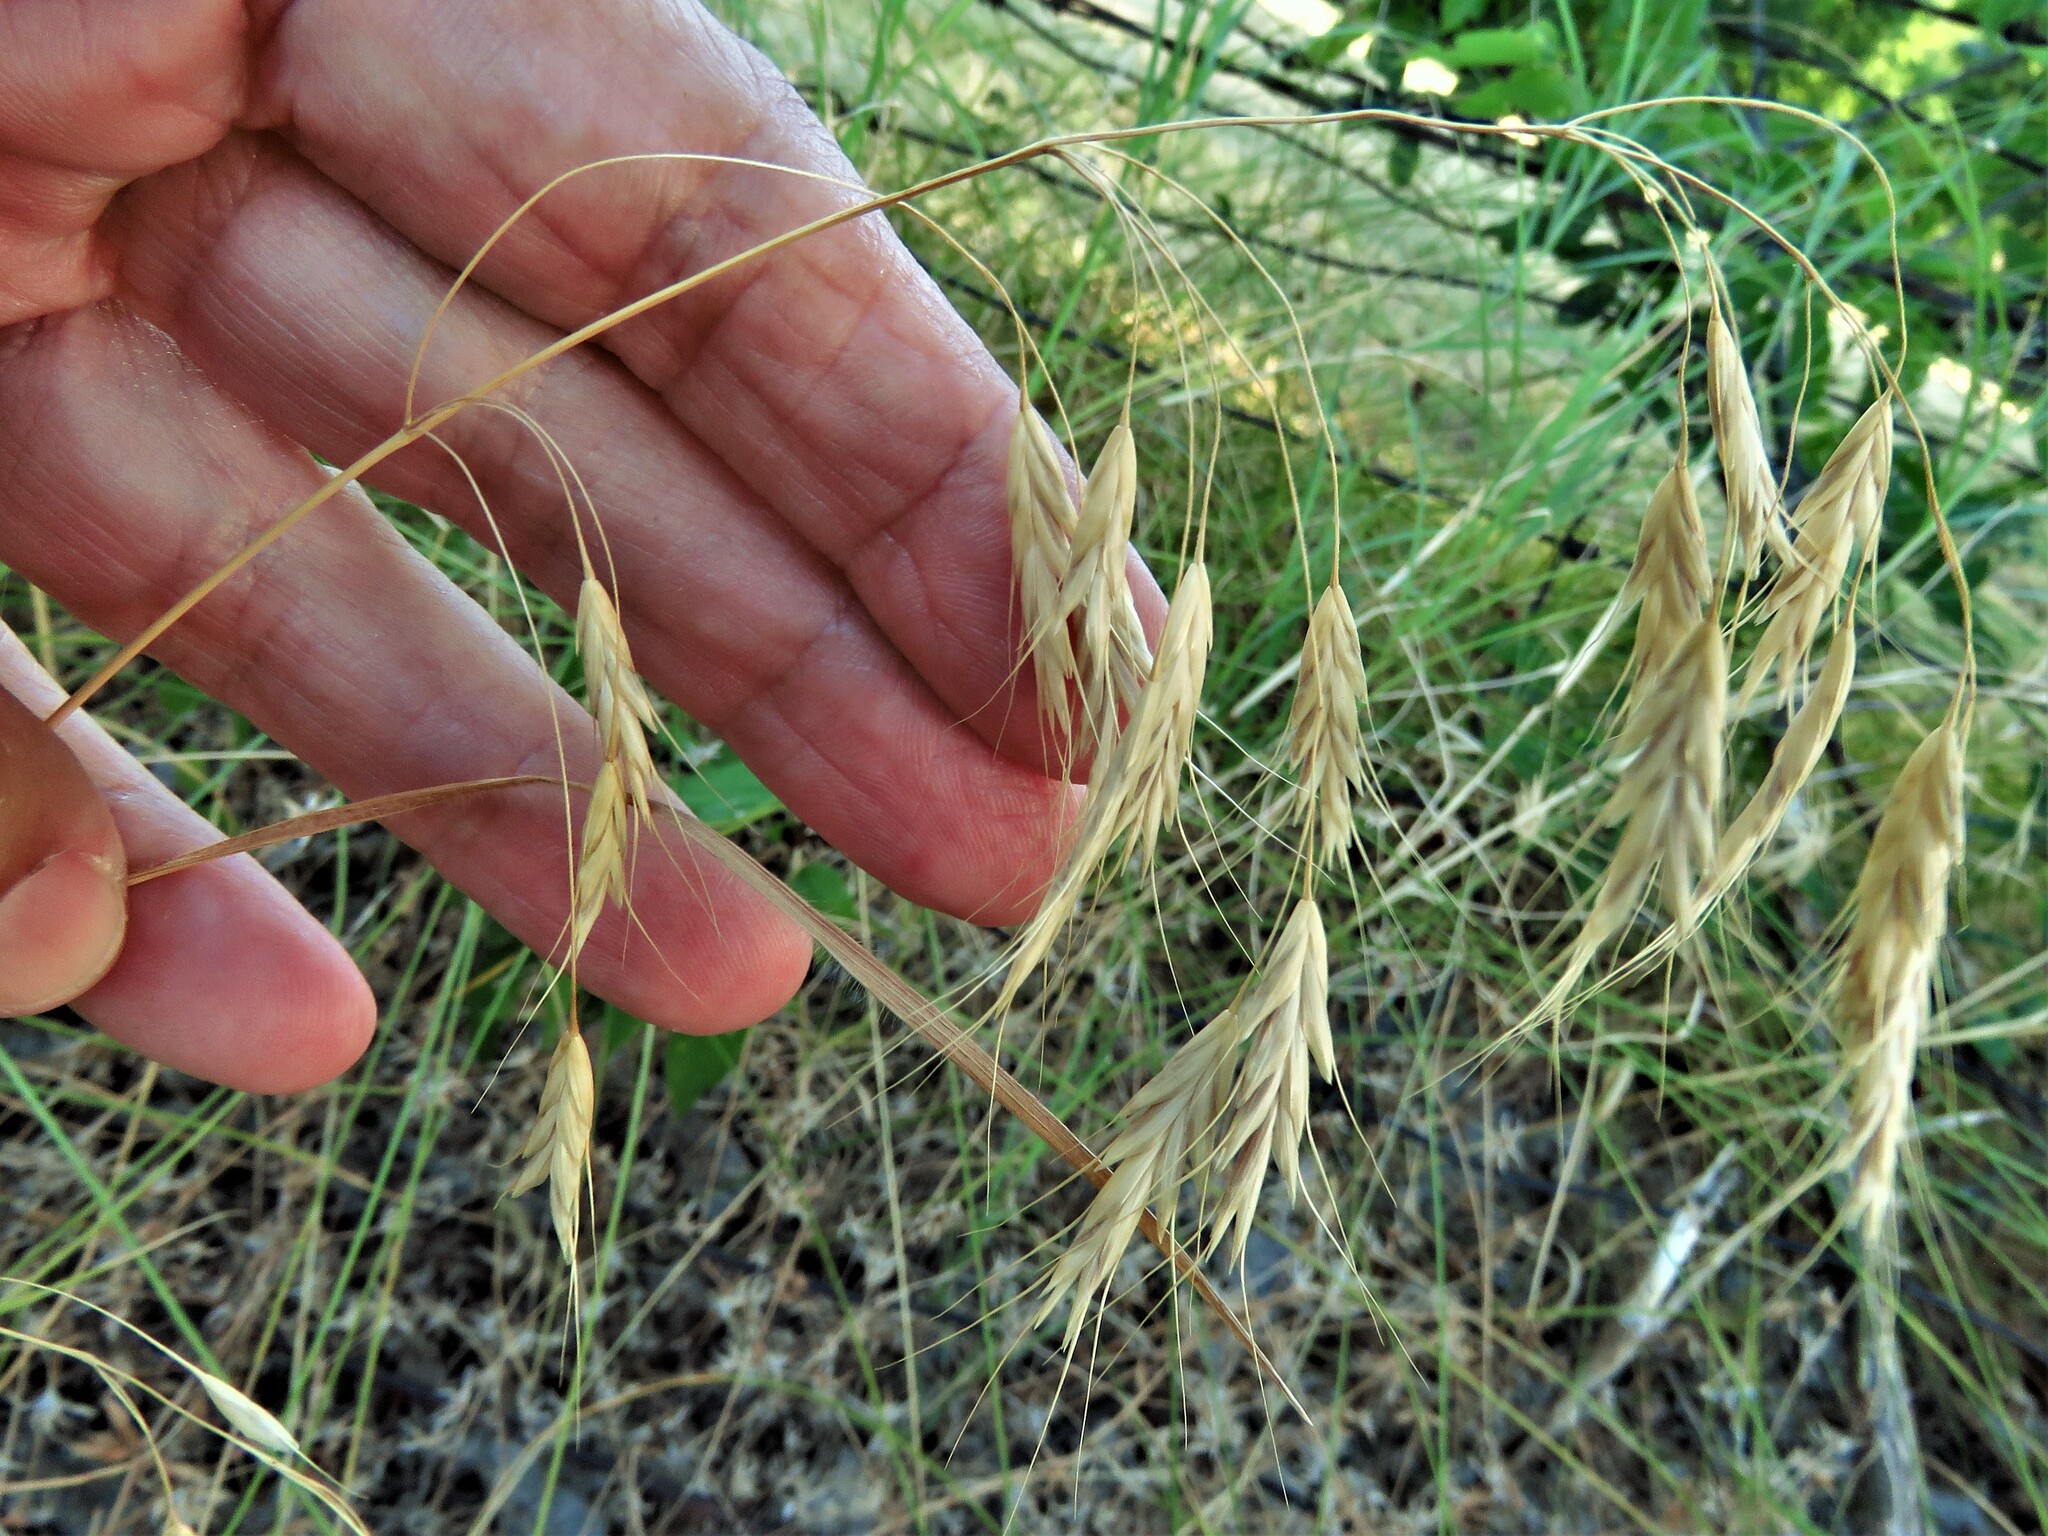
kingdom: Plantae
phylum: Tracheophyta
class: Liliopsida
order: Poales
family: Poaceae
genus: Bromus
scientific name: Bromus japonicus
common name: Japanese brome
